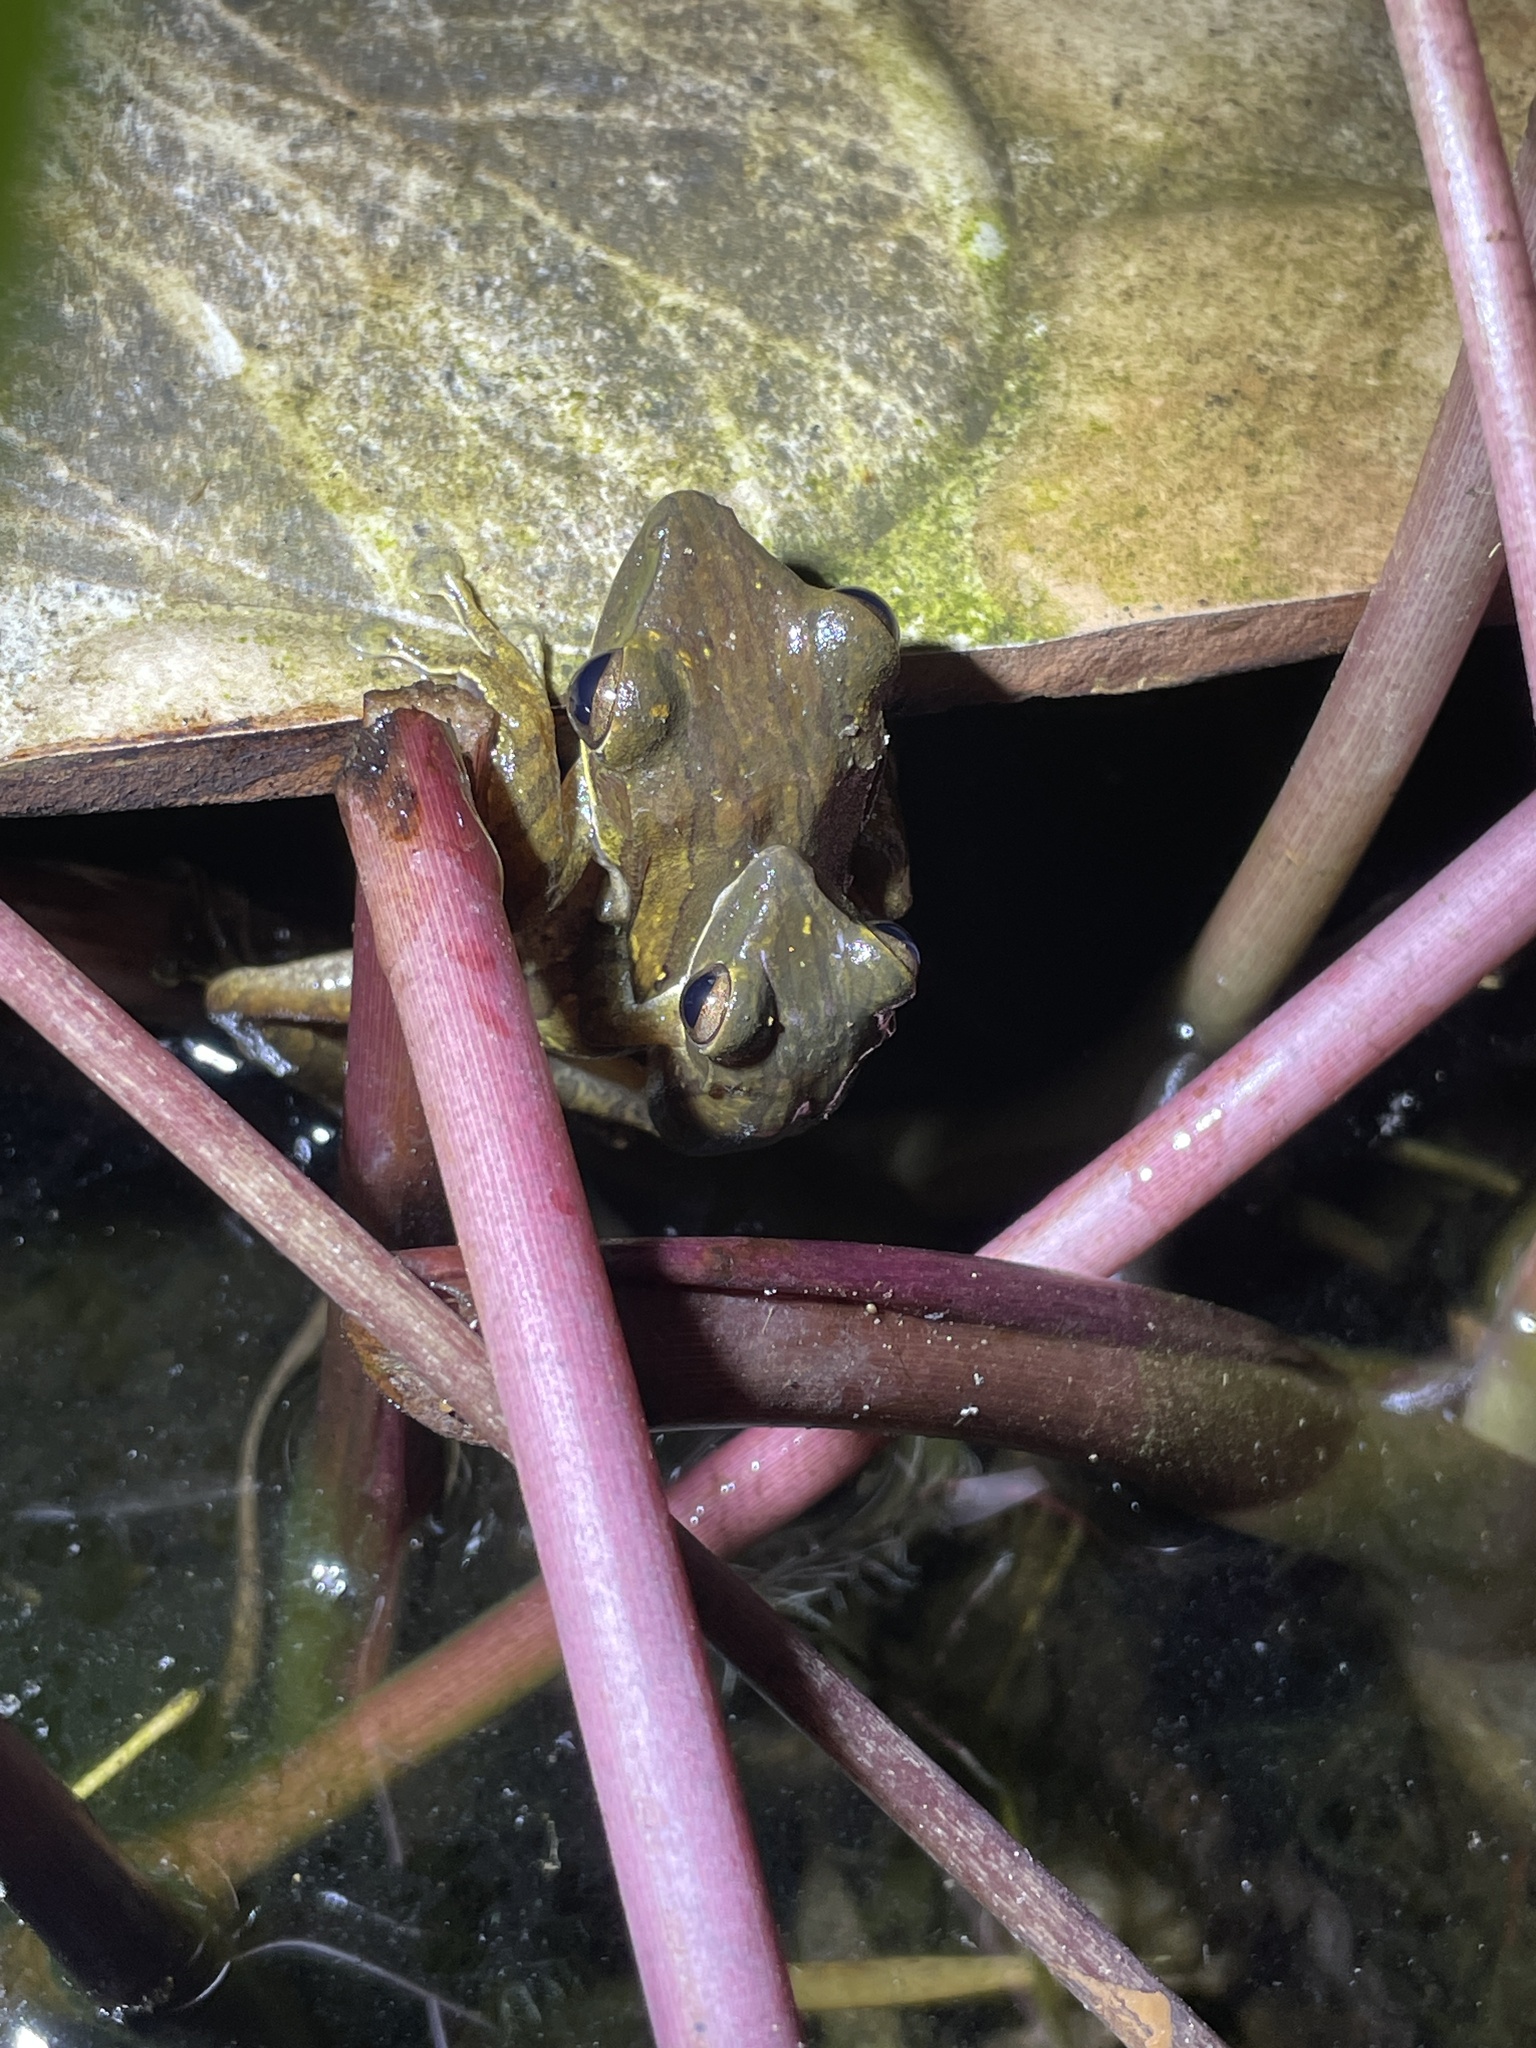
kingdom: Animalia
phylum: Chordata
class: Amphibia
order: Anura
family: Rhacophoridae
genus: Polypedates
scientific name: Polypedates leucomystax
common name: Common tree frog/four-lined tree frog
